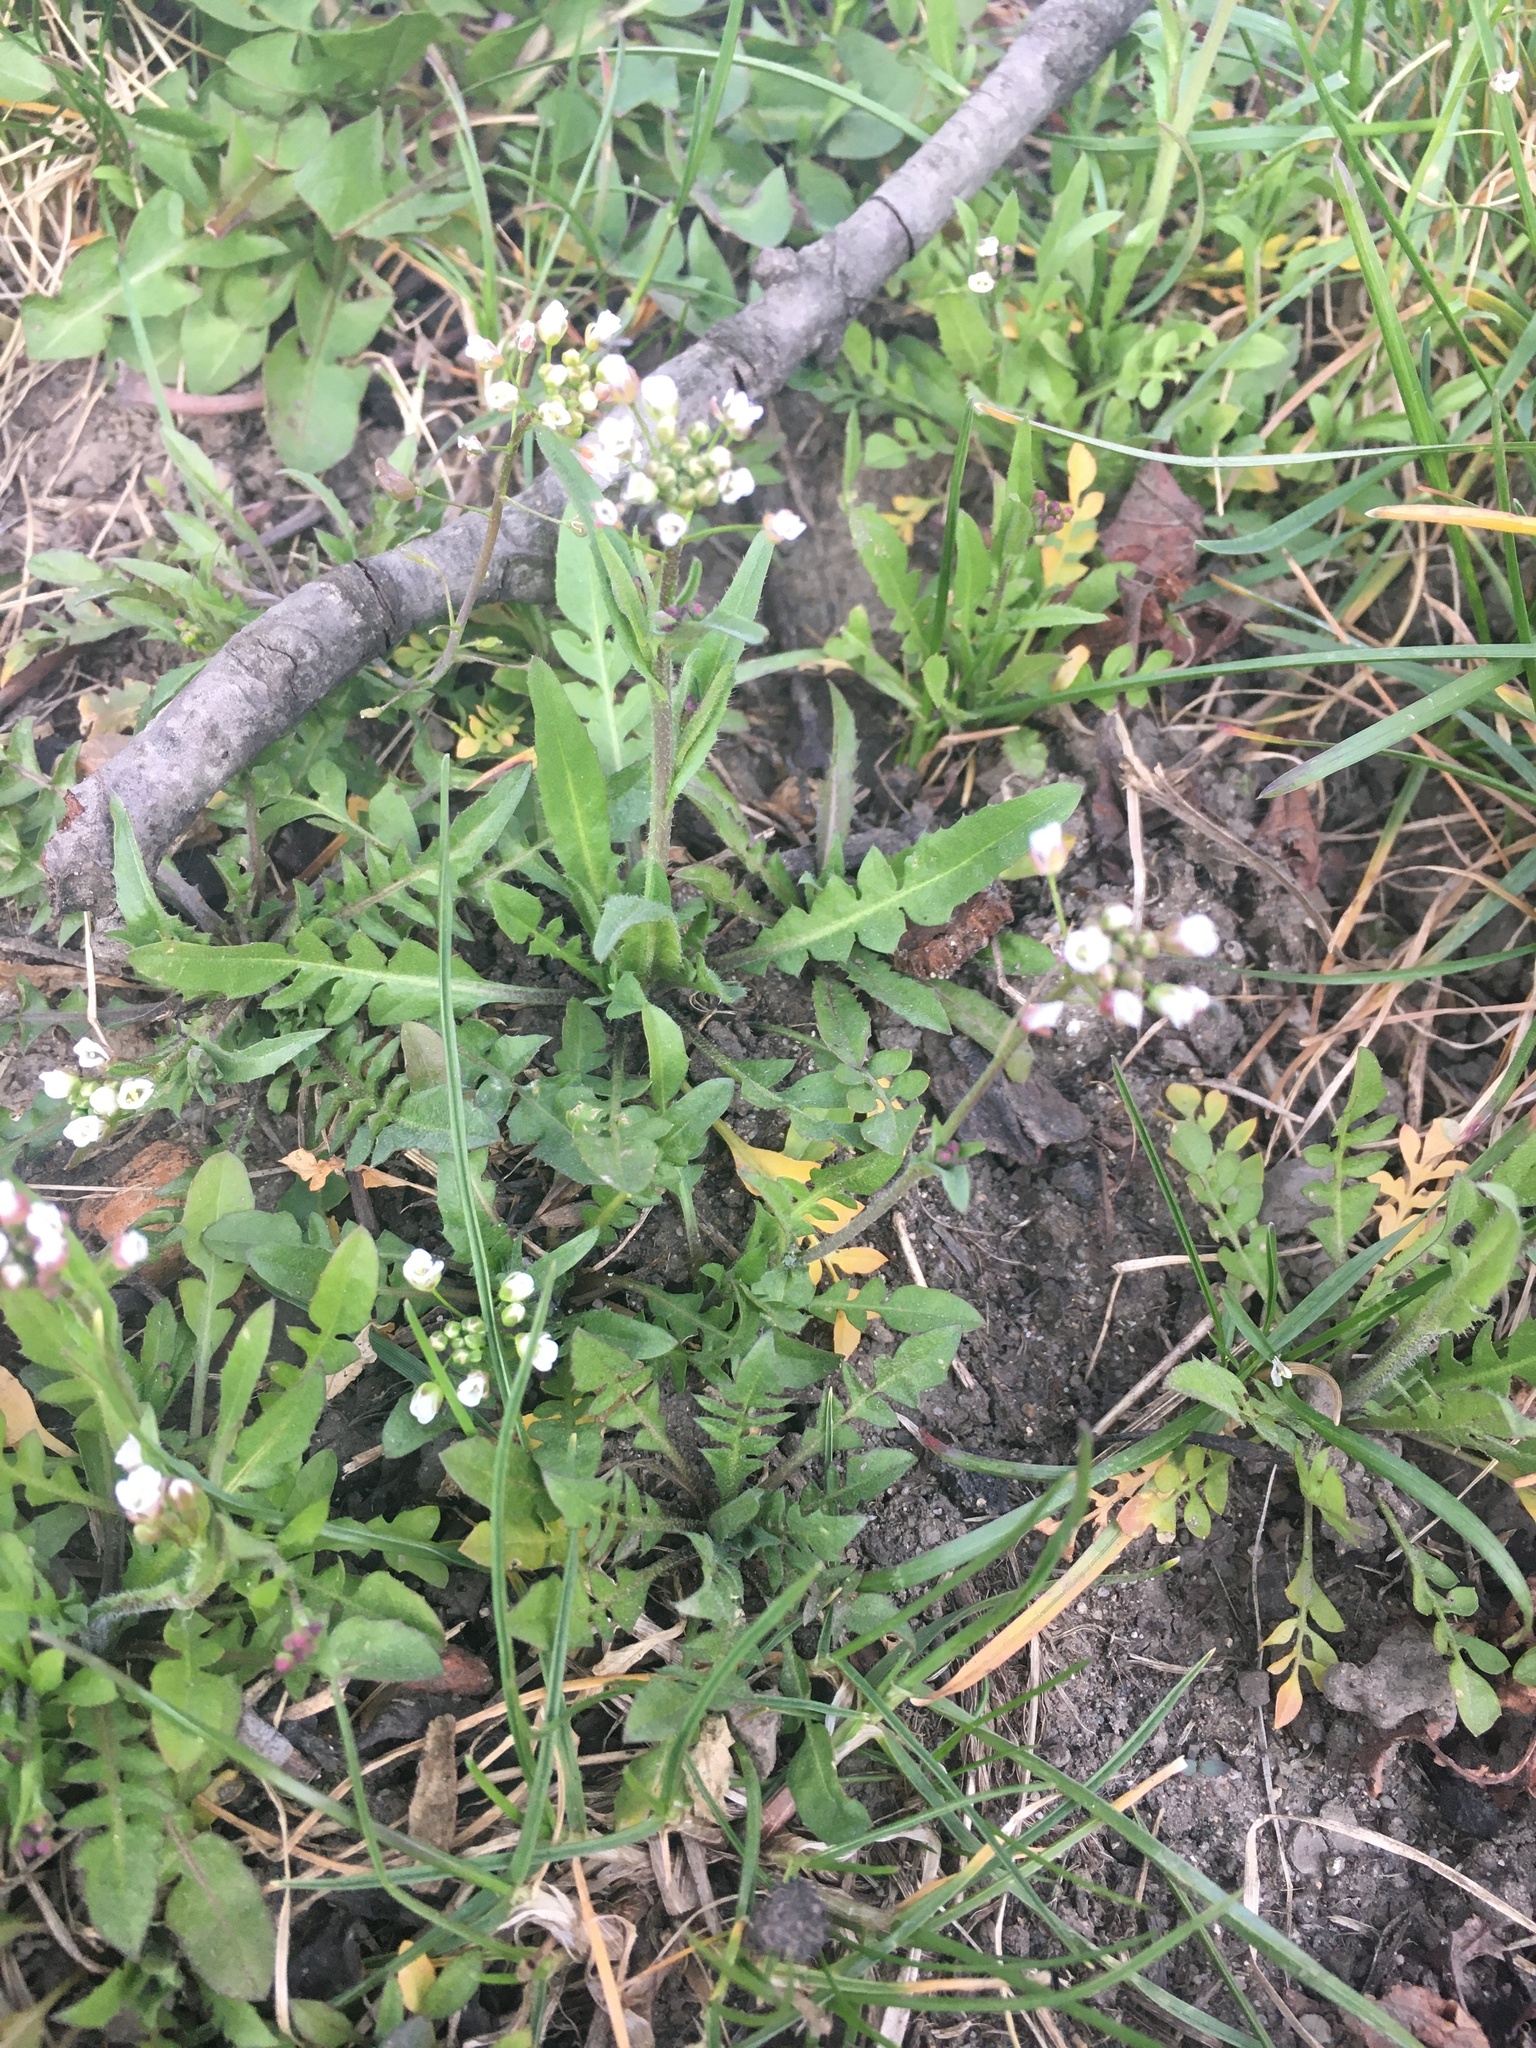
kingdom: Plantae
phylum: Tracheophyta
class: Magnoliopsida
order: Brassicales
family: Brassicaceae
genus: Capsella
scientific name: Capsella bursa-pastoris
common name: Shepherd's purse
